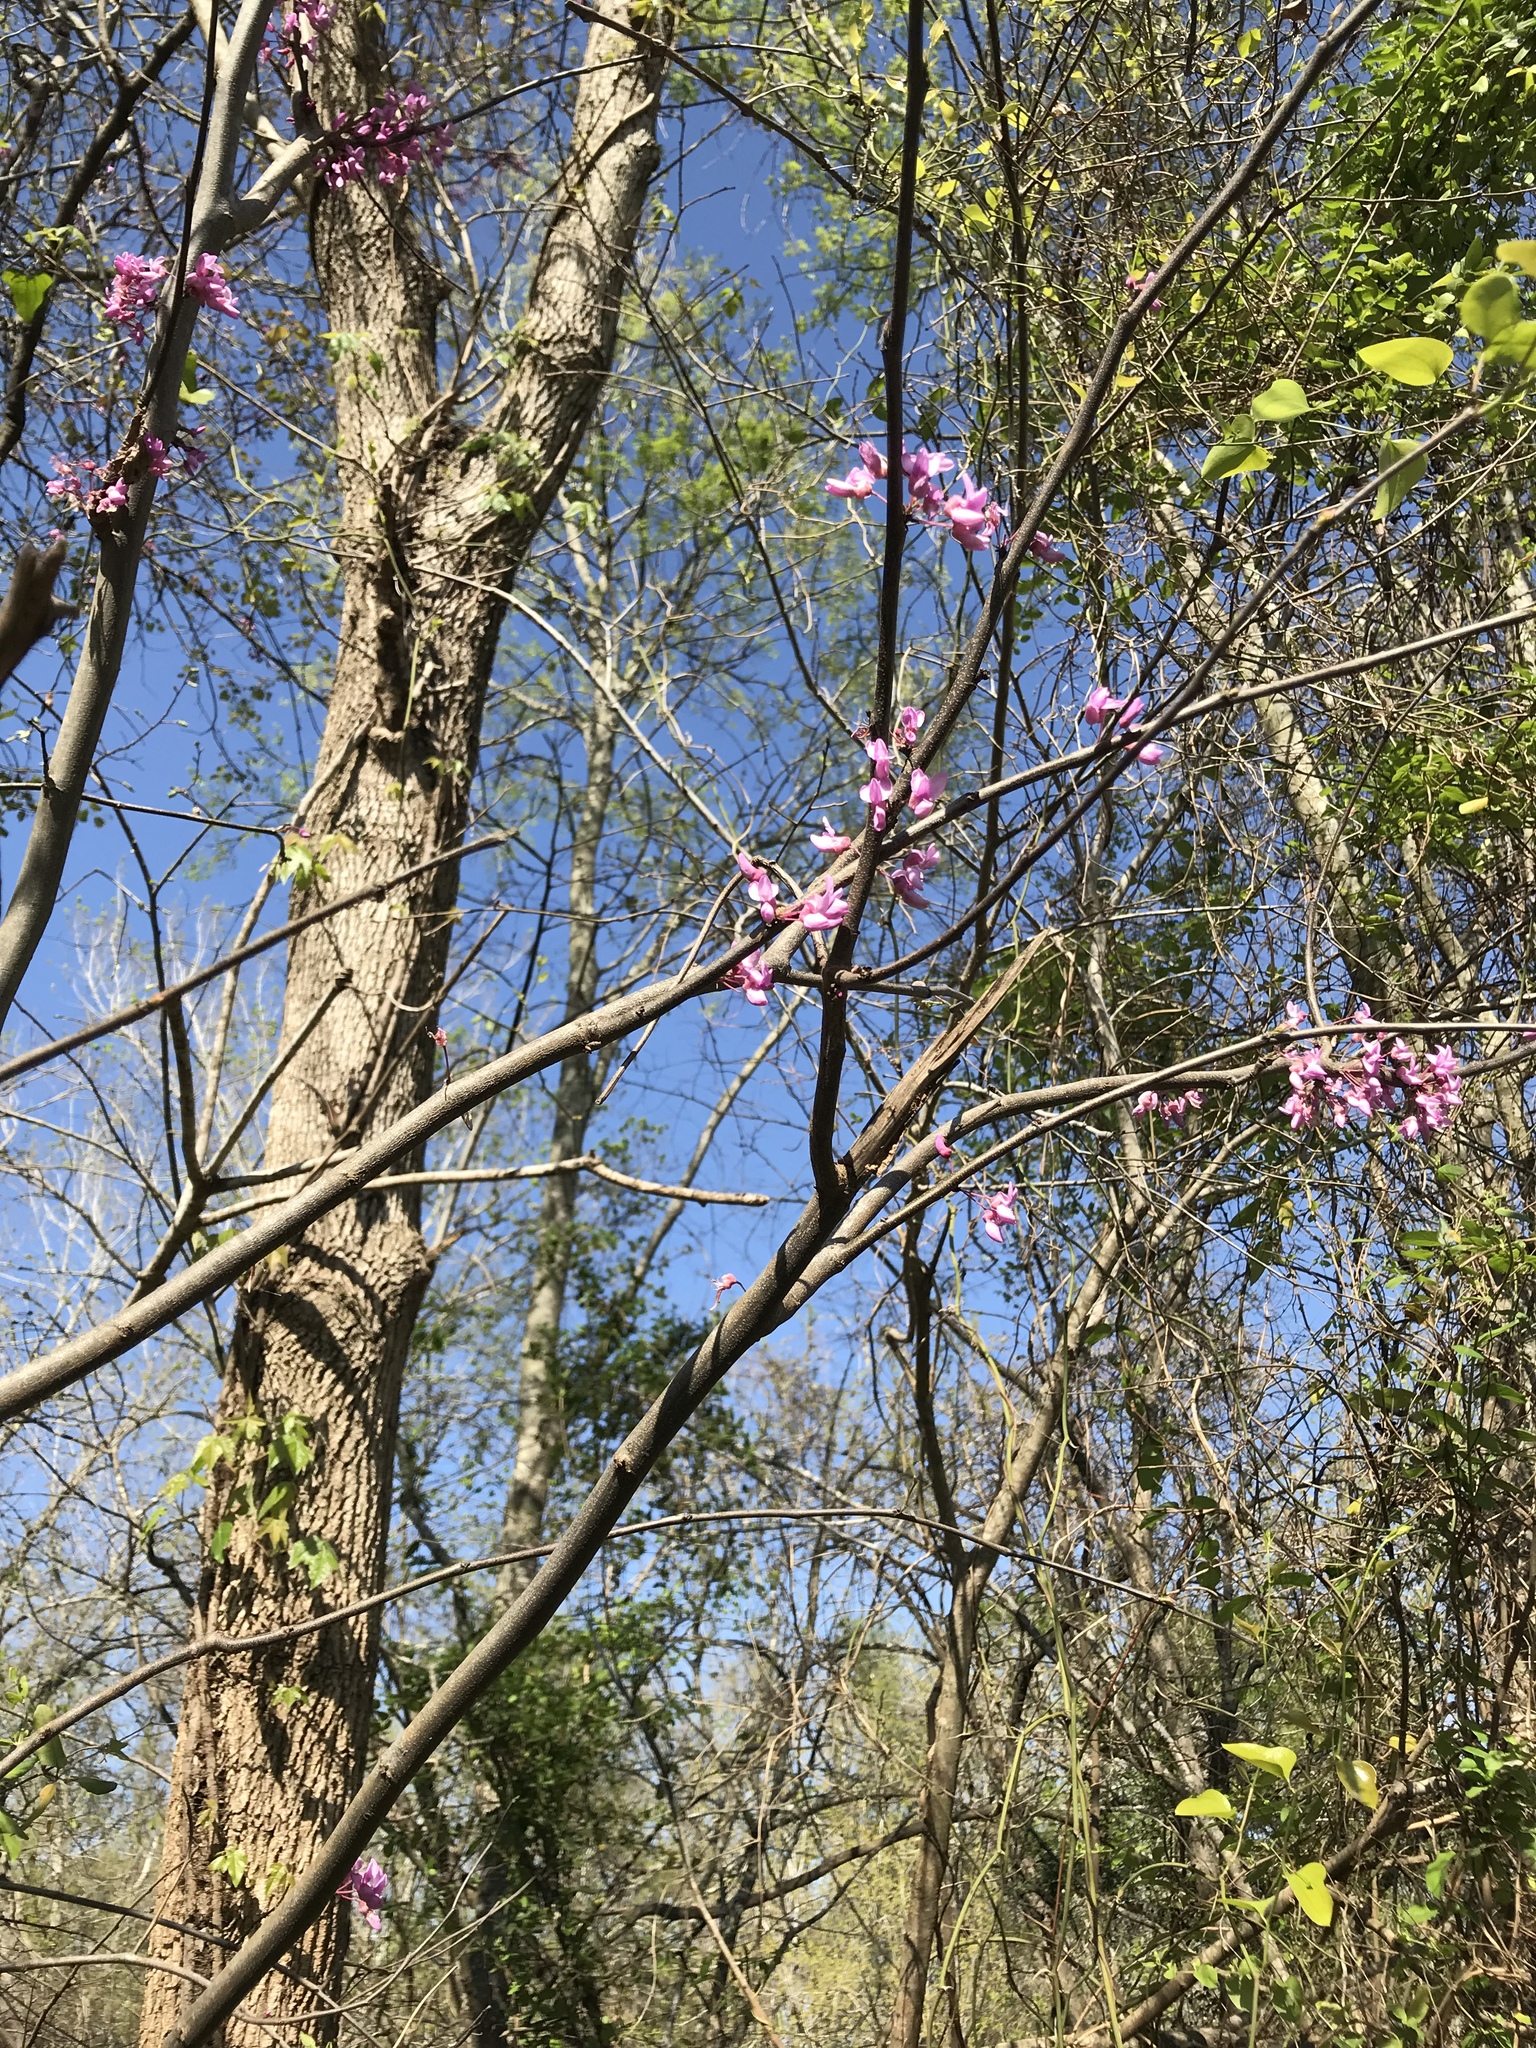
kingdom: Plantae
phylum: Tracheophyta
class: Magnoliopsida
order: Fabales
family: Fabaceae
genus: Cercis
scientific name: Cercis canadensis
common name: Eastern redbud
